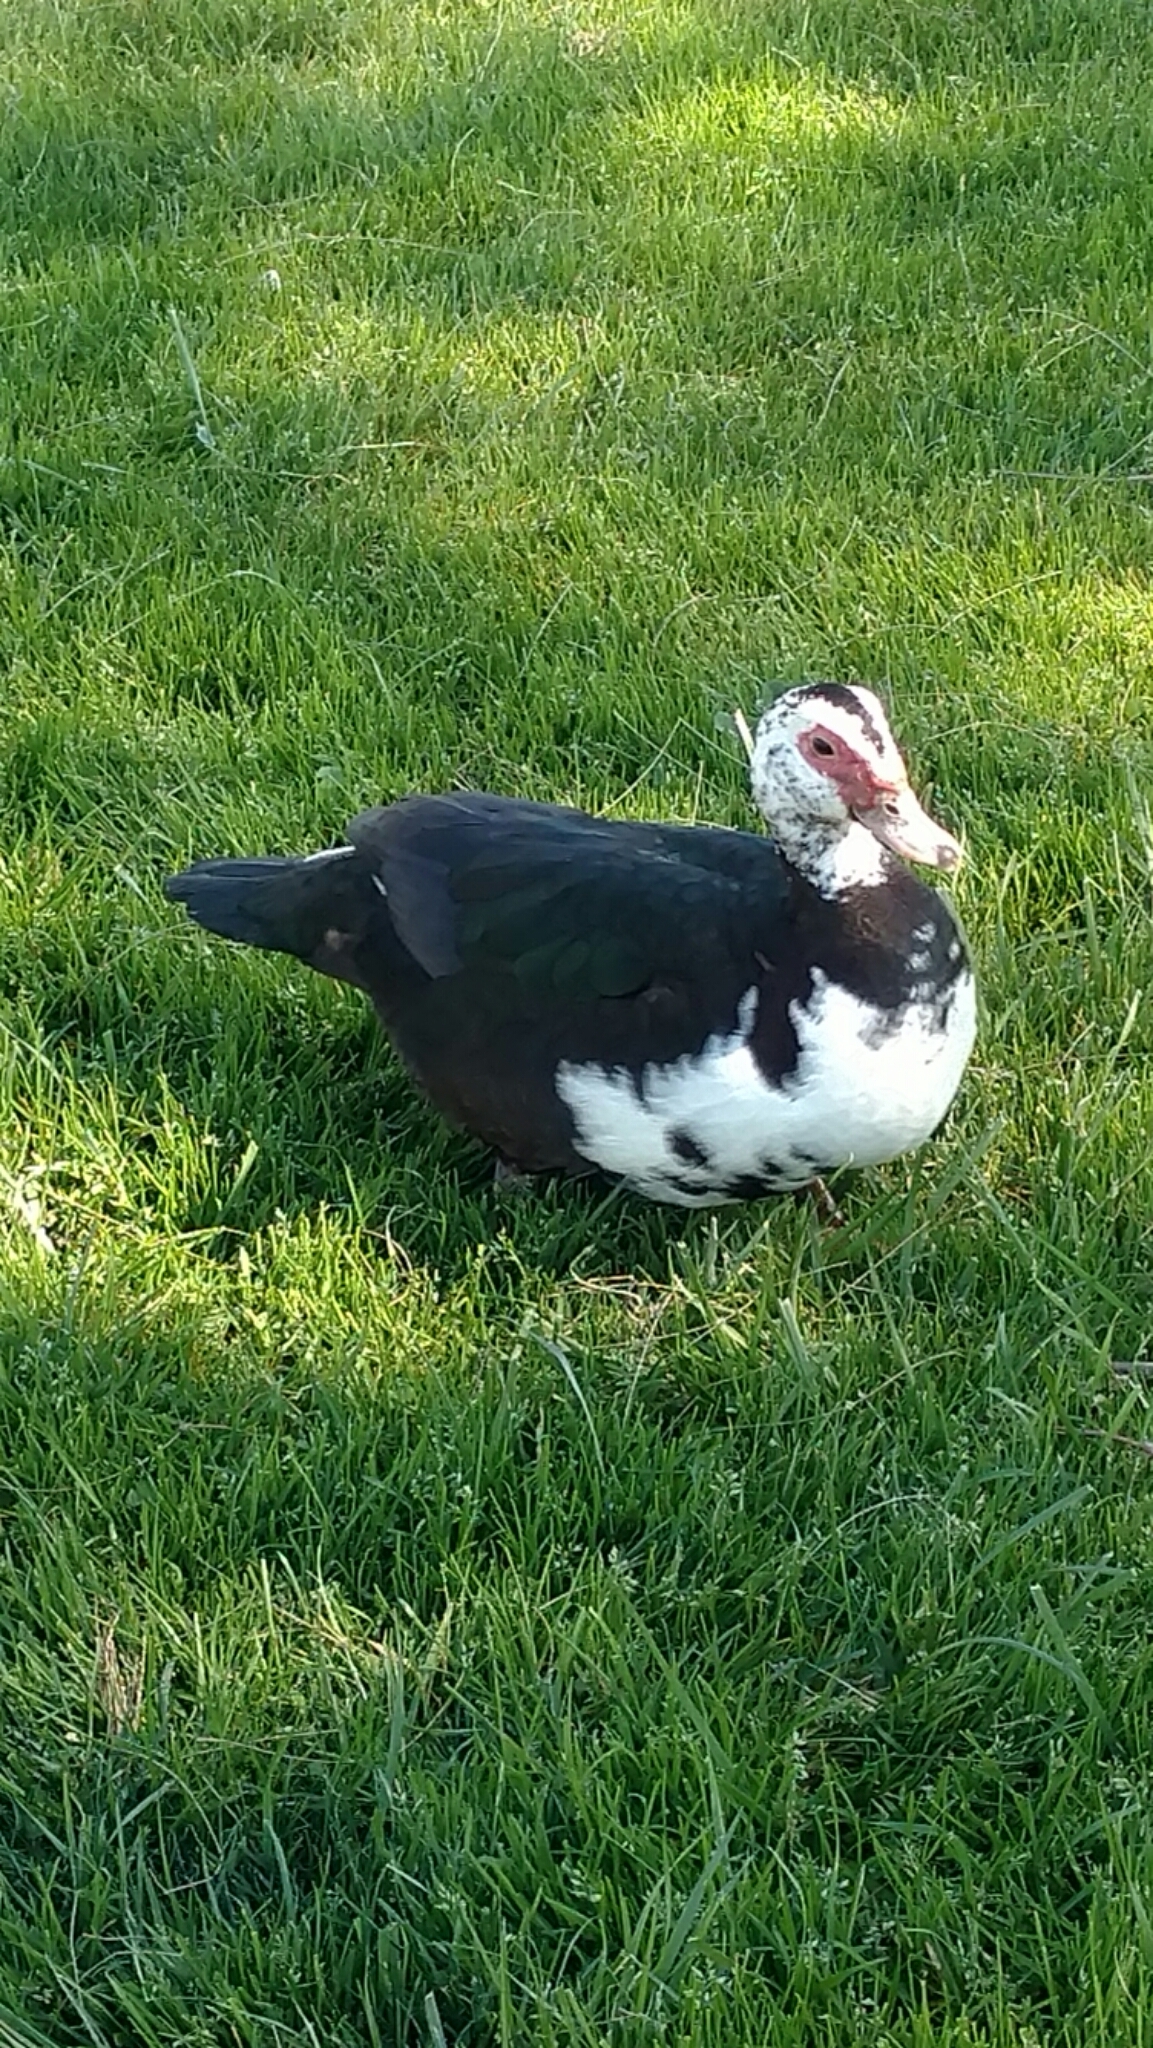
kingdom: Animalia
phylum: Chordata
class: Aves
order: Anseriformes
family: Anatidae
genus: Cairina
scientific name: Cairina moschata
